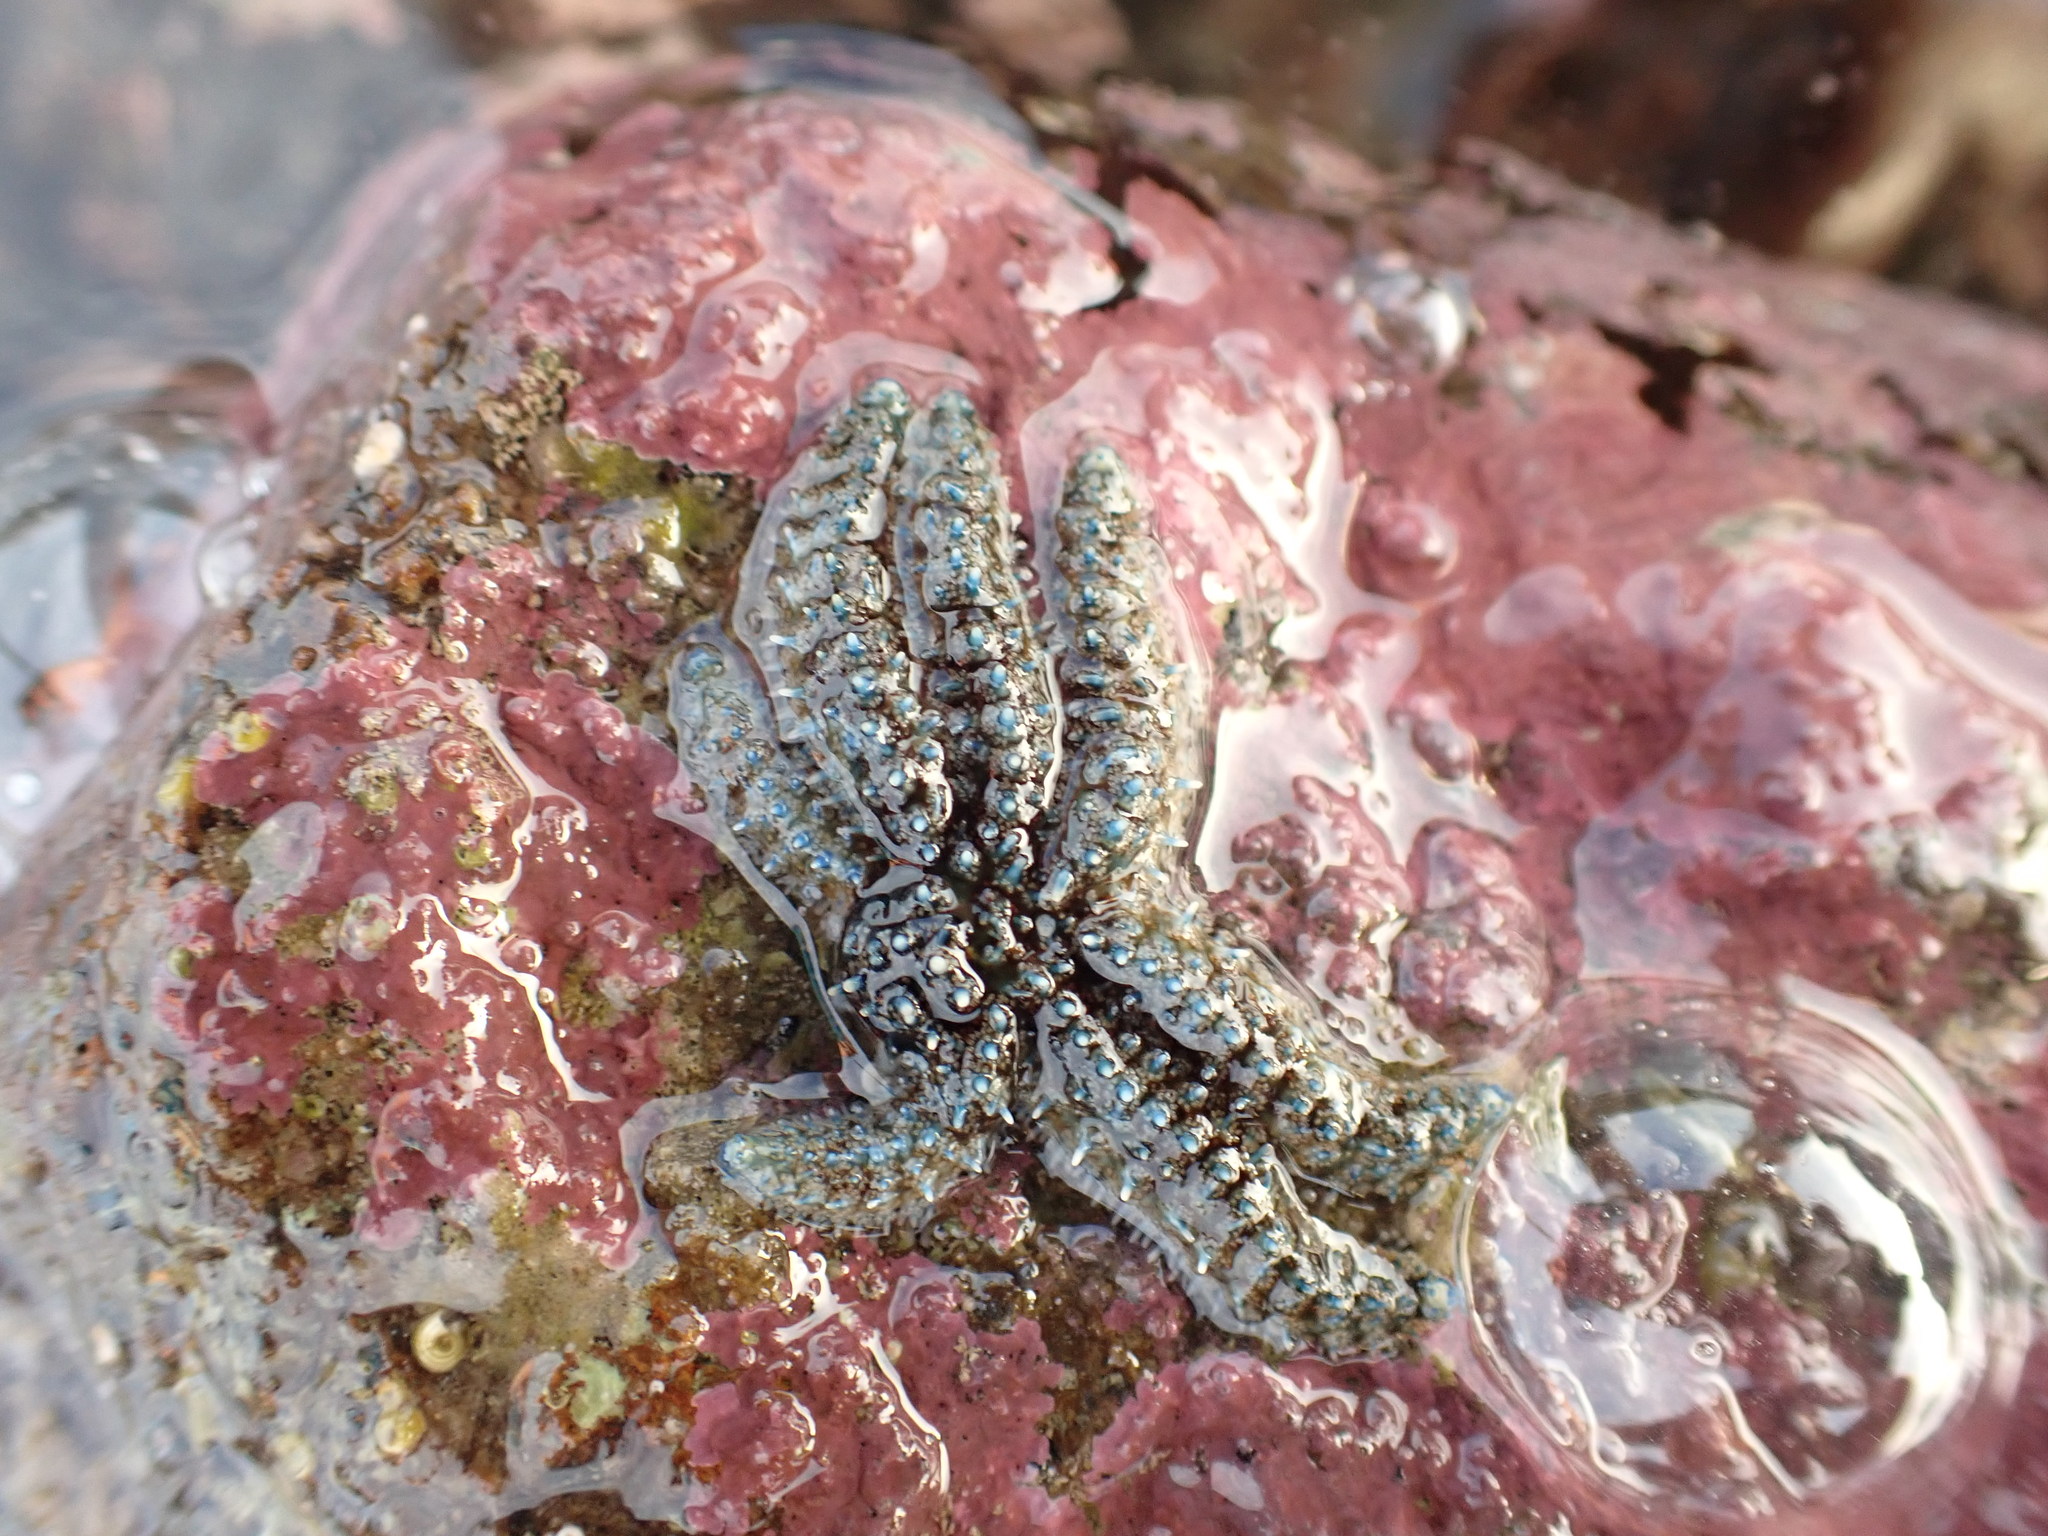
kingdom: Animalia
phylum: Echinodermata
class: Asteroidea
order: Forcipulatida
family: Asteriidae
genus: Coscinasterias
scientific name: Coscinasterias muricata
